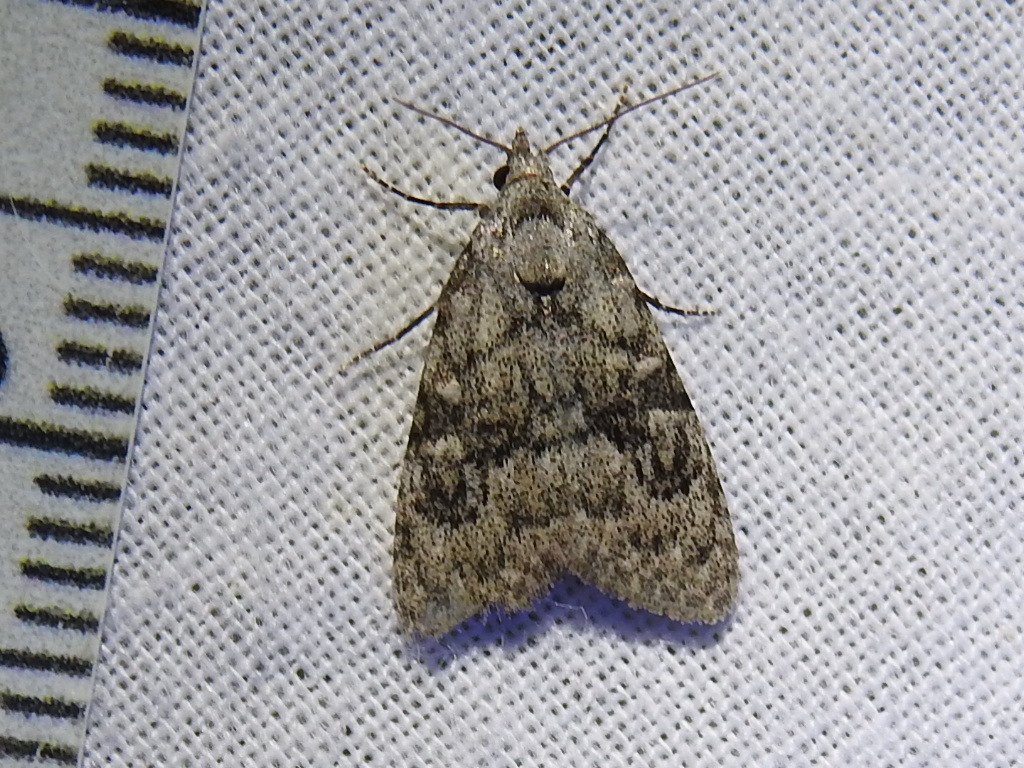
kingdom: Animalia
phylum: Arthropoda
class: Insecta
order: Lepidoptera
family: Nolidae
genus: Meganola
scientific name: Meganola minuscula
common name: Confused meganola moth
